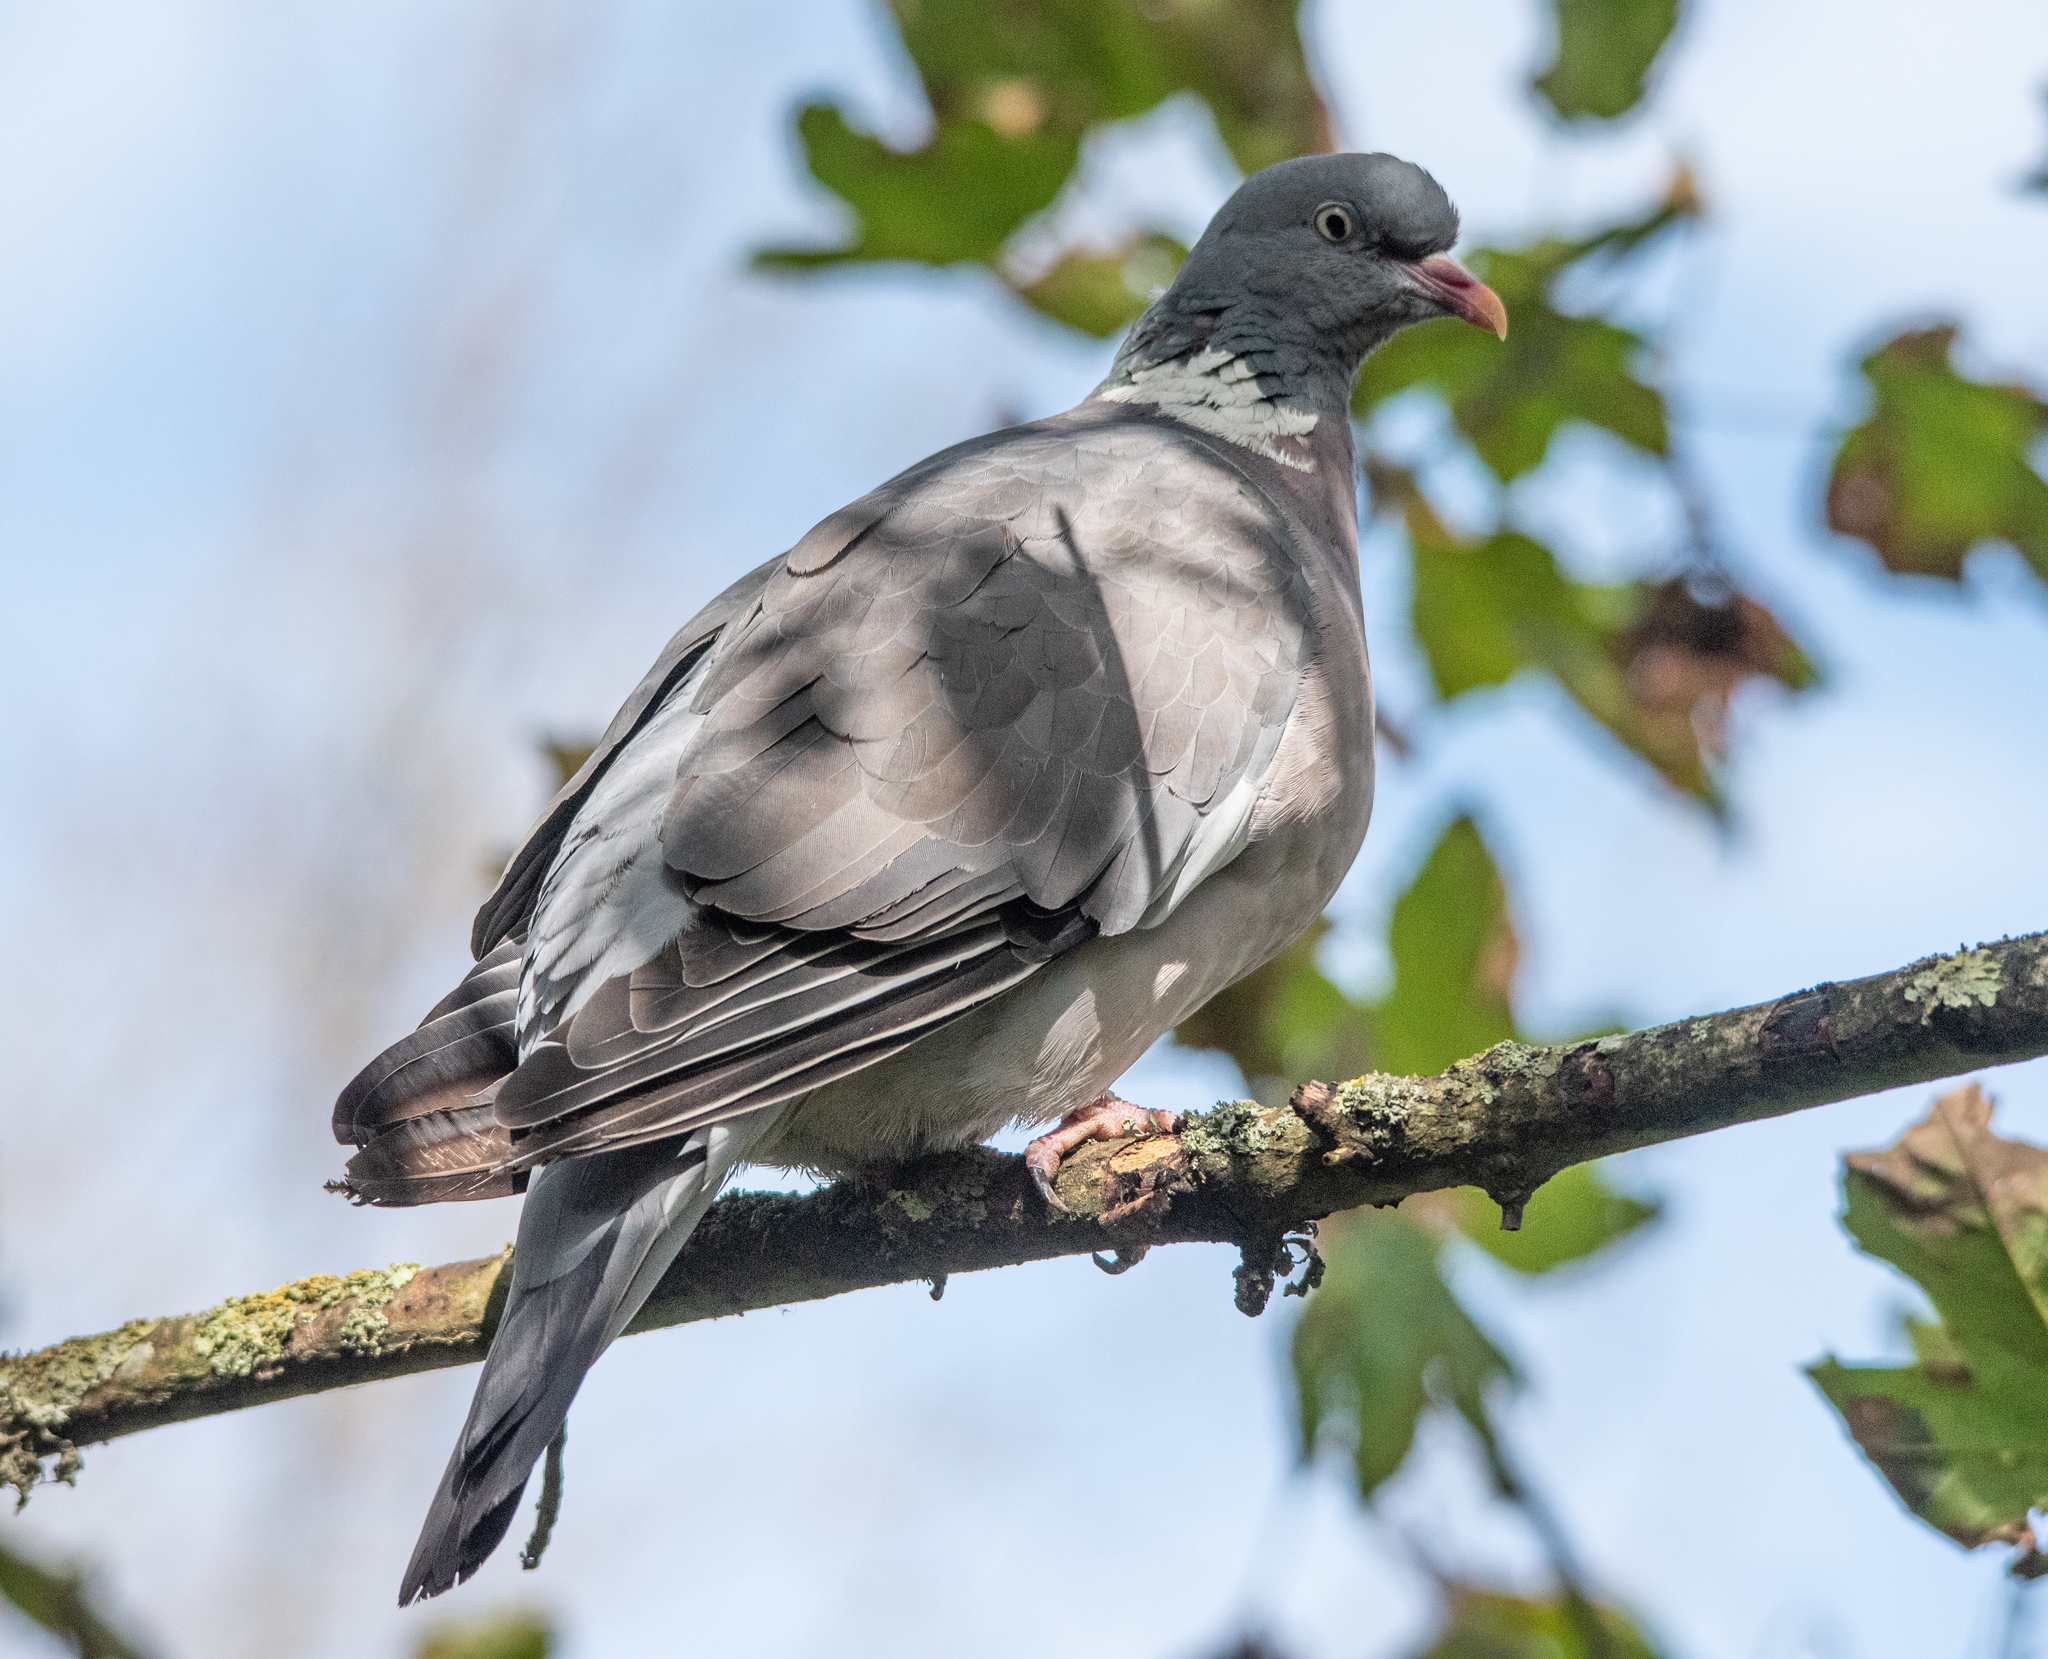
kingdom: Animalia
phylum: Chordata
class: Aves
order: Columbiformes
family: Columbidae
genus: Columba
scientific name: Columba palumbus
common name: Common wood pigeon
